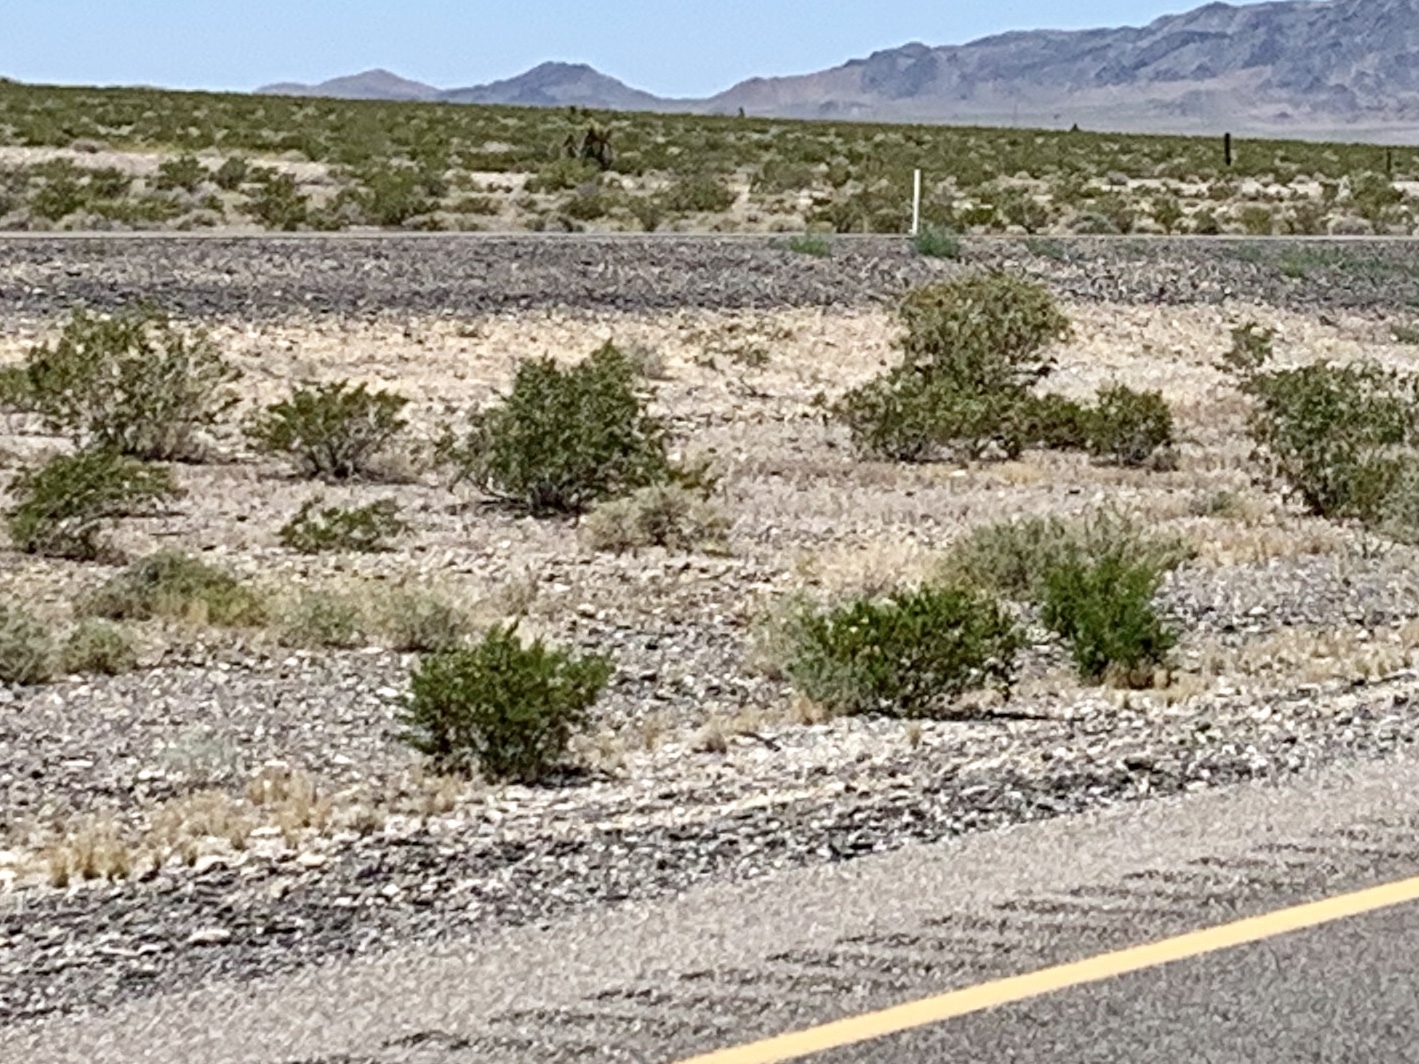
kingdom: Plantae
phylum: Tracheophyta
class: Magnoliopsida
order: Zygophyllales
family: Zygophyllaceae
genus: Larrea
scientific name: Larrea tridentata
